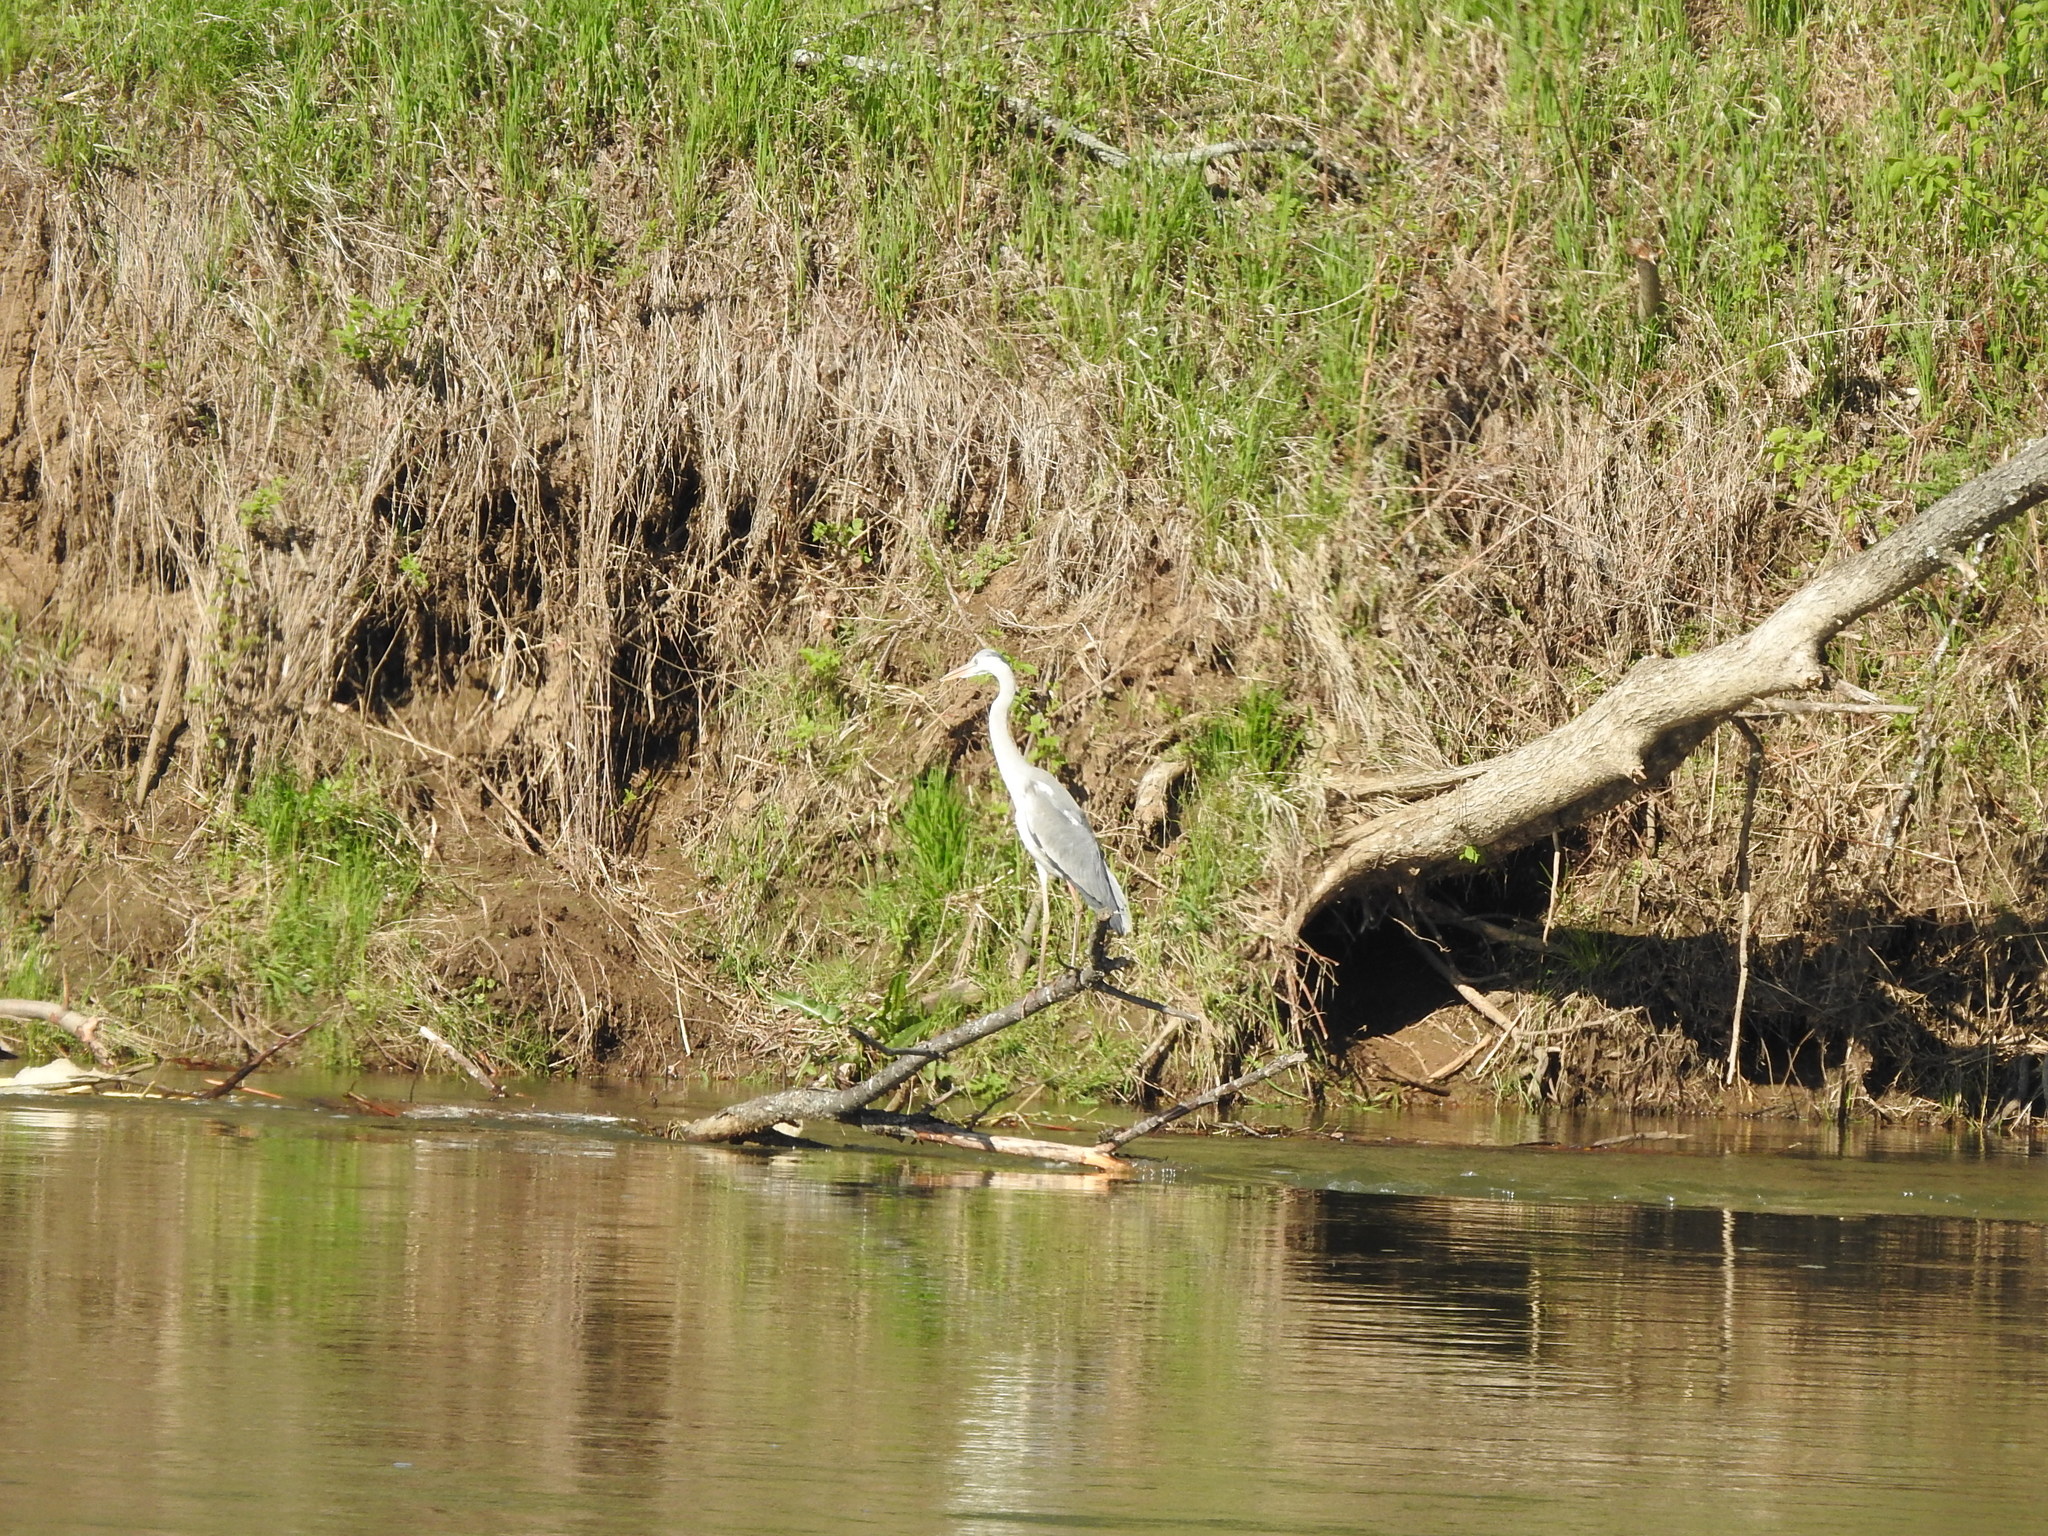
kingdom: Animalia
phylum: Chordata
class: Aves
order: Pelecaniformes
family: Ardeidae
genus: Ardea
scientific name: Ardea cinerea
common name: Grey heron
